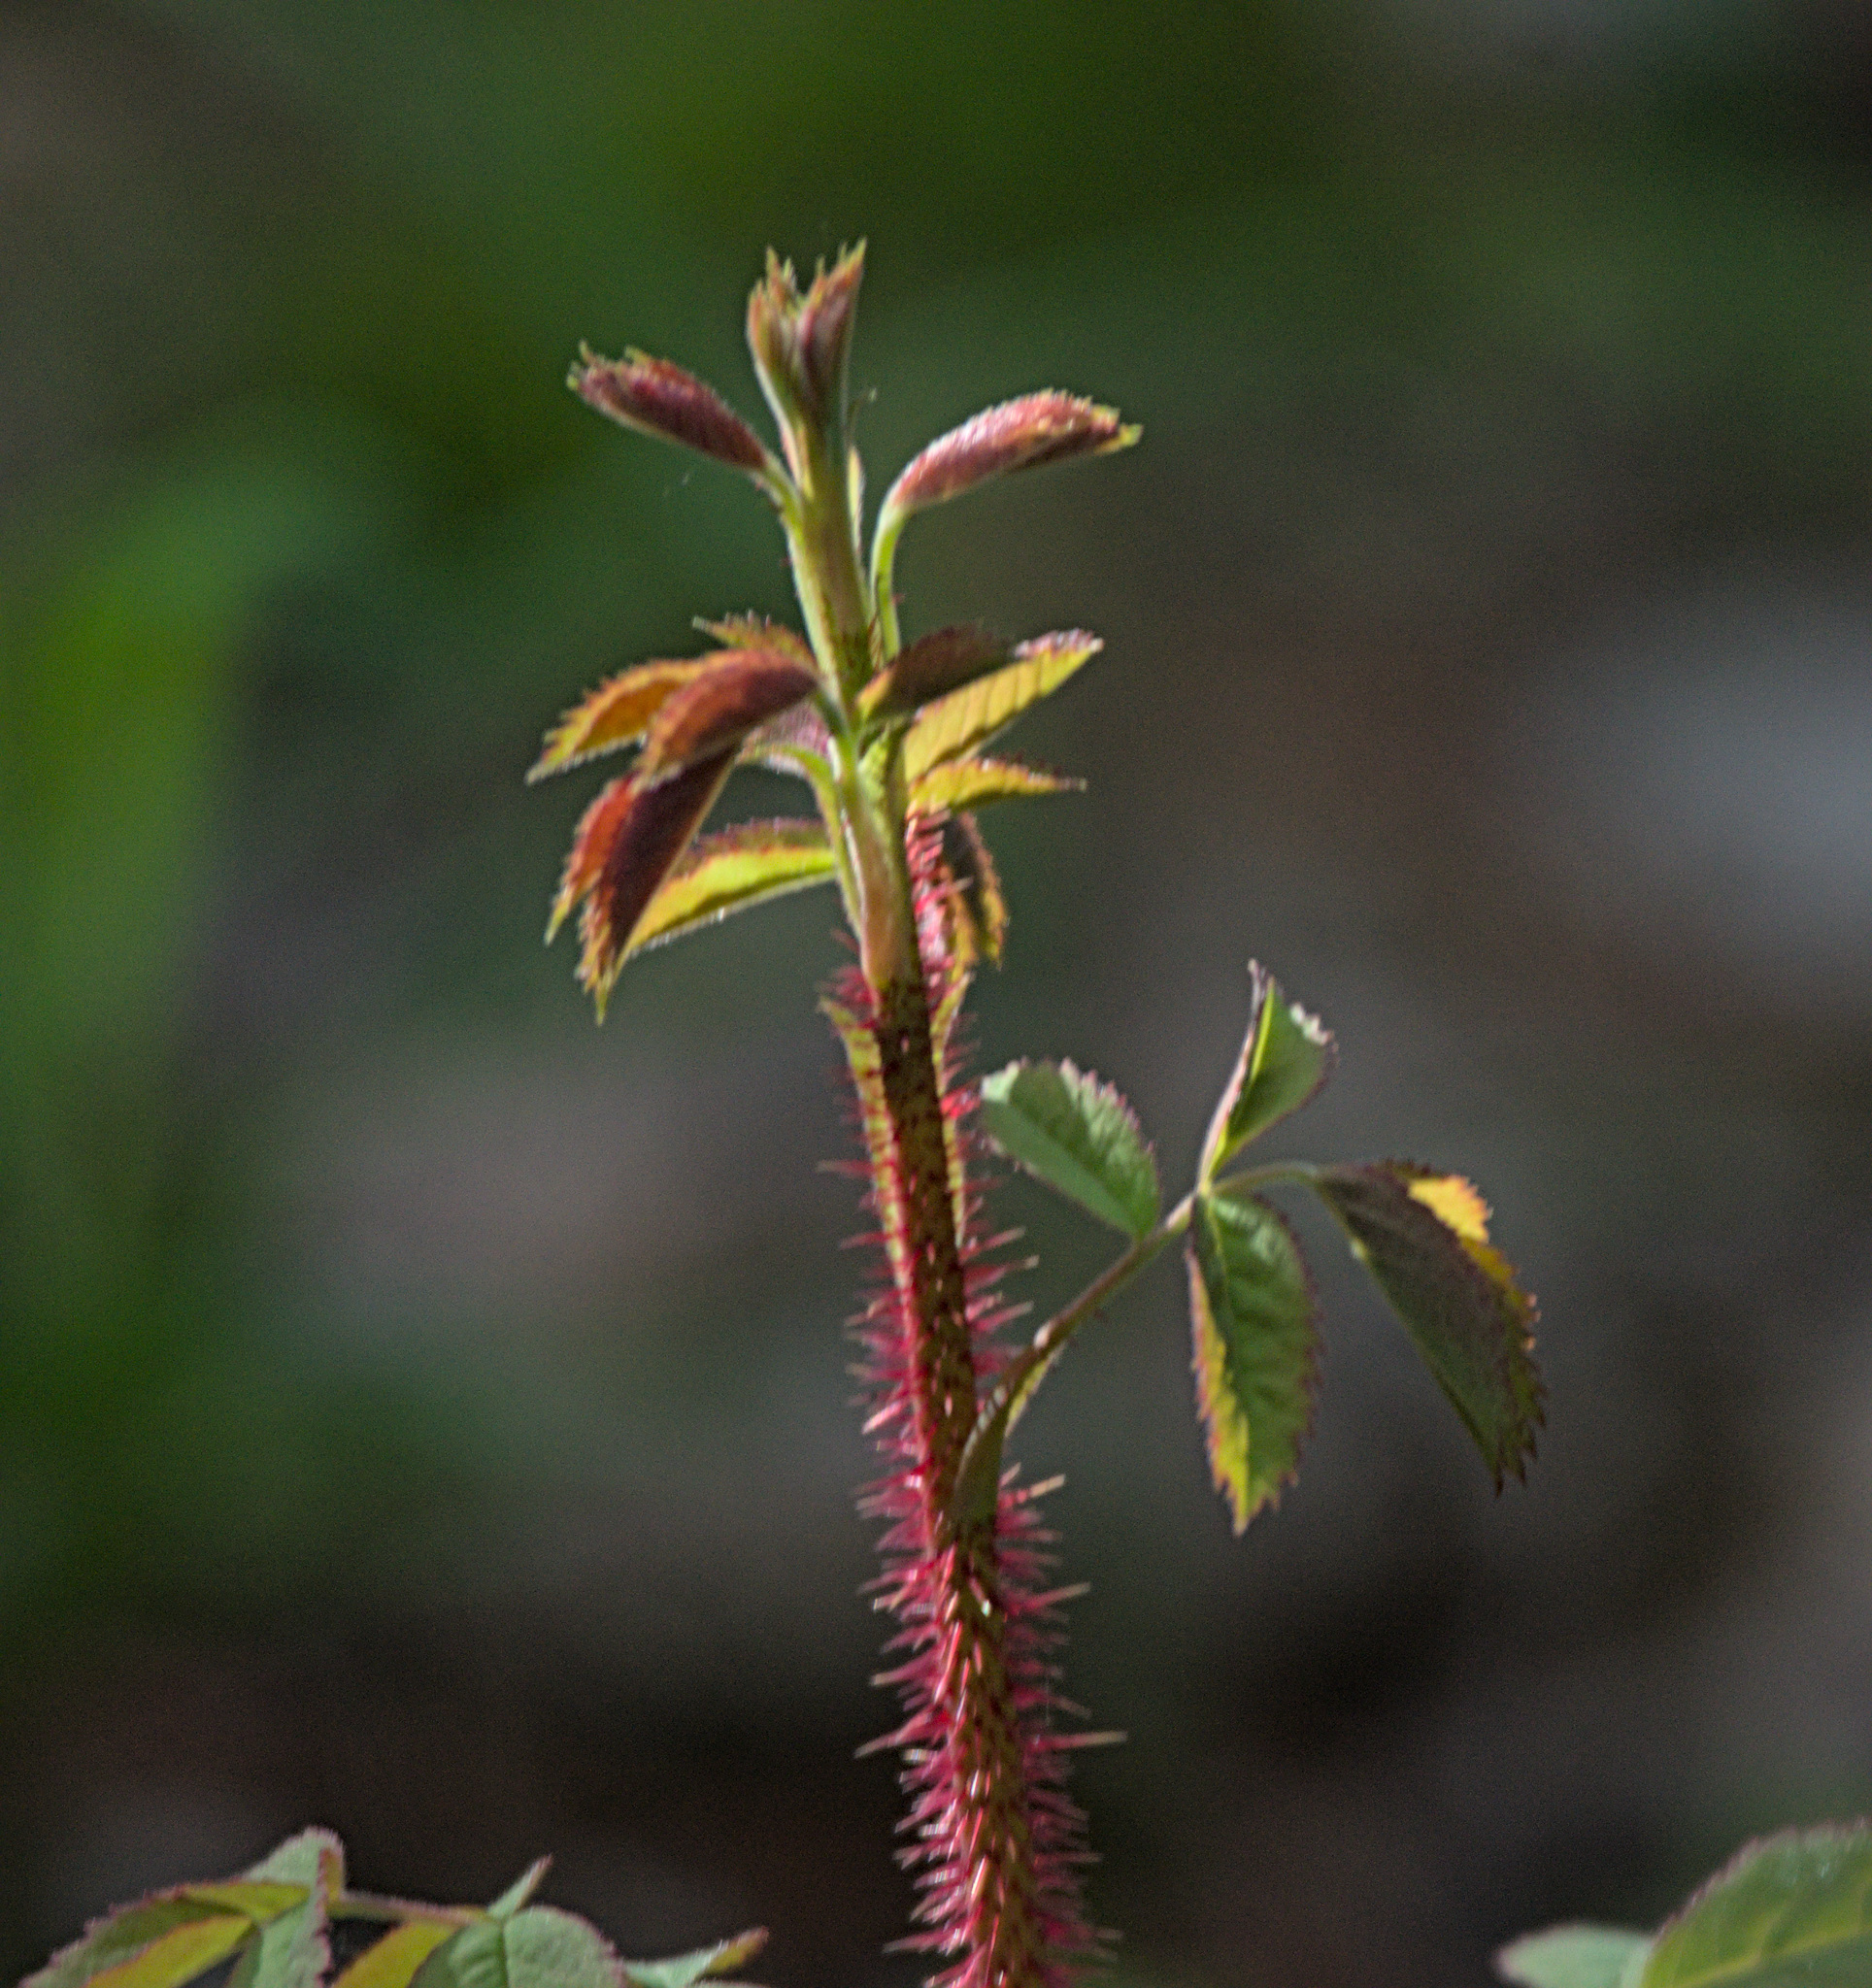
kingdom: Plantae
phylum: Tracheophyta
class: Magnoliopsida
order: Rosales
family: Rosaceae
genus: Rosa
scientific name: Rosa acicularis
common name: Prickly rose
